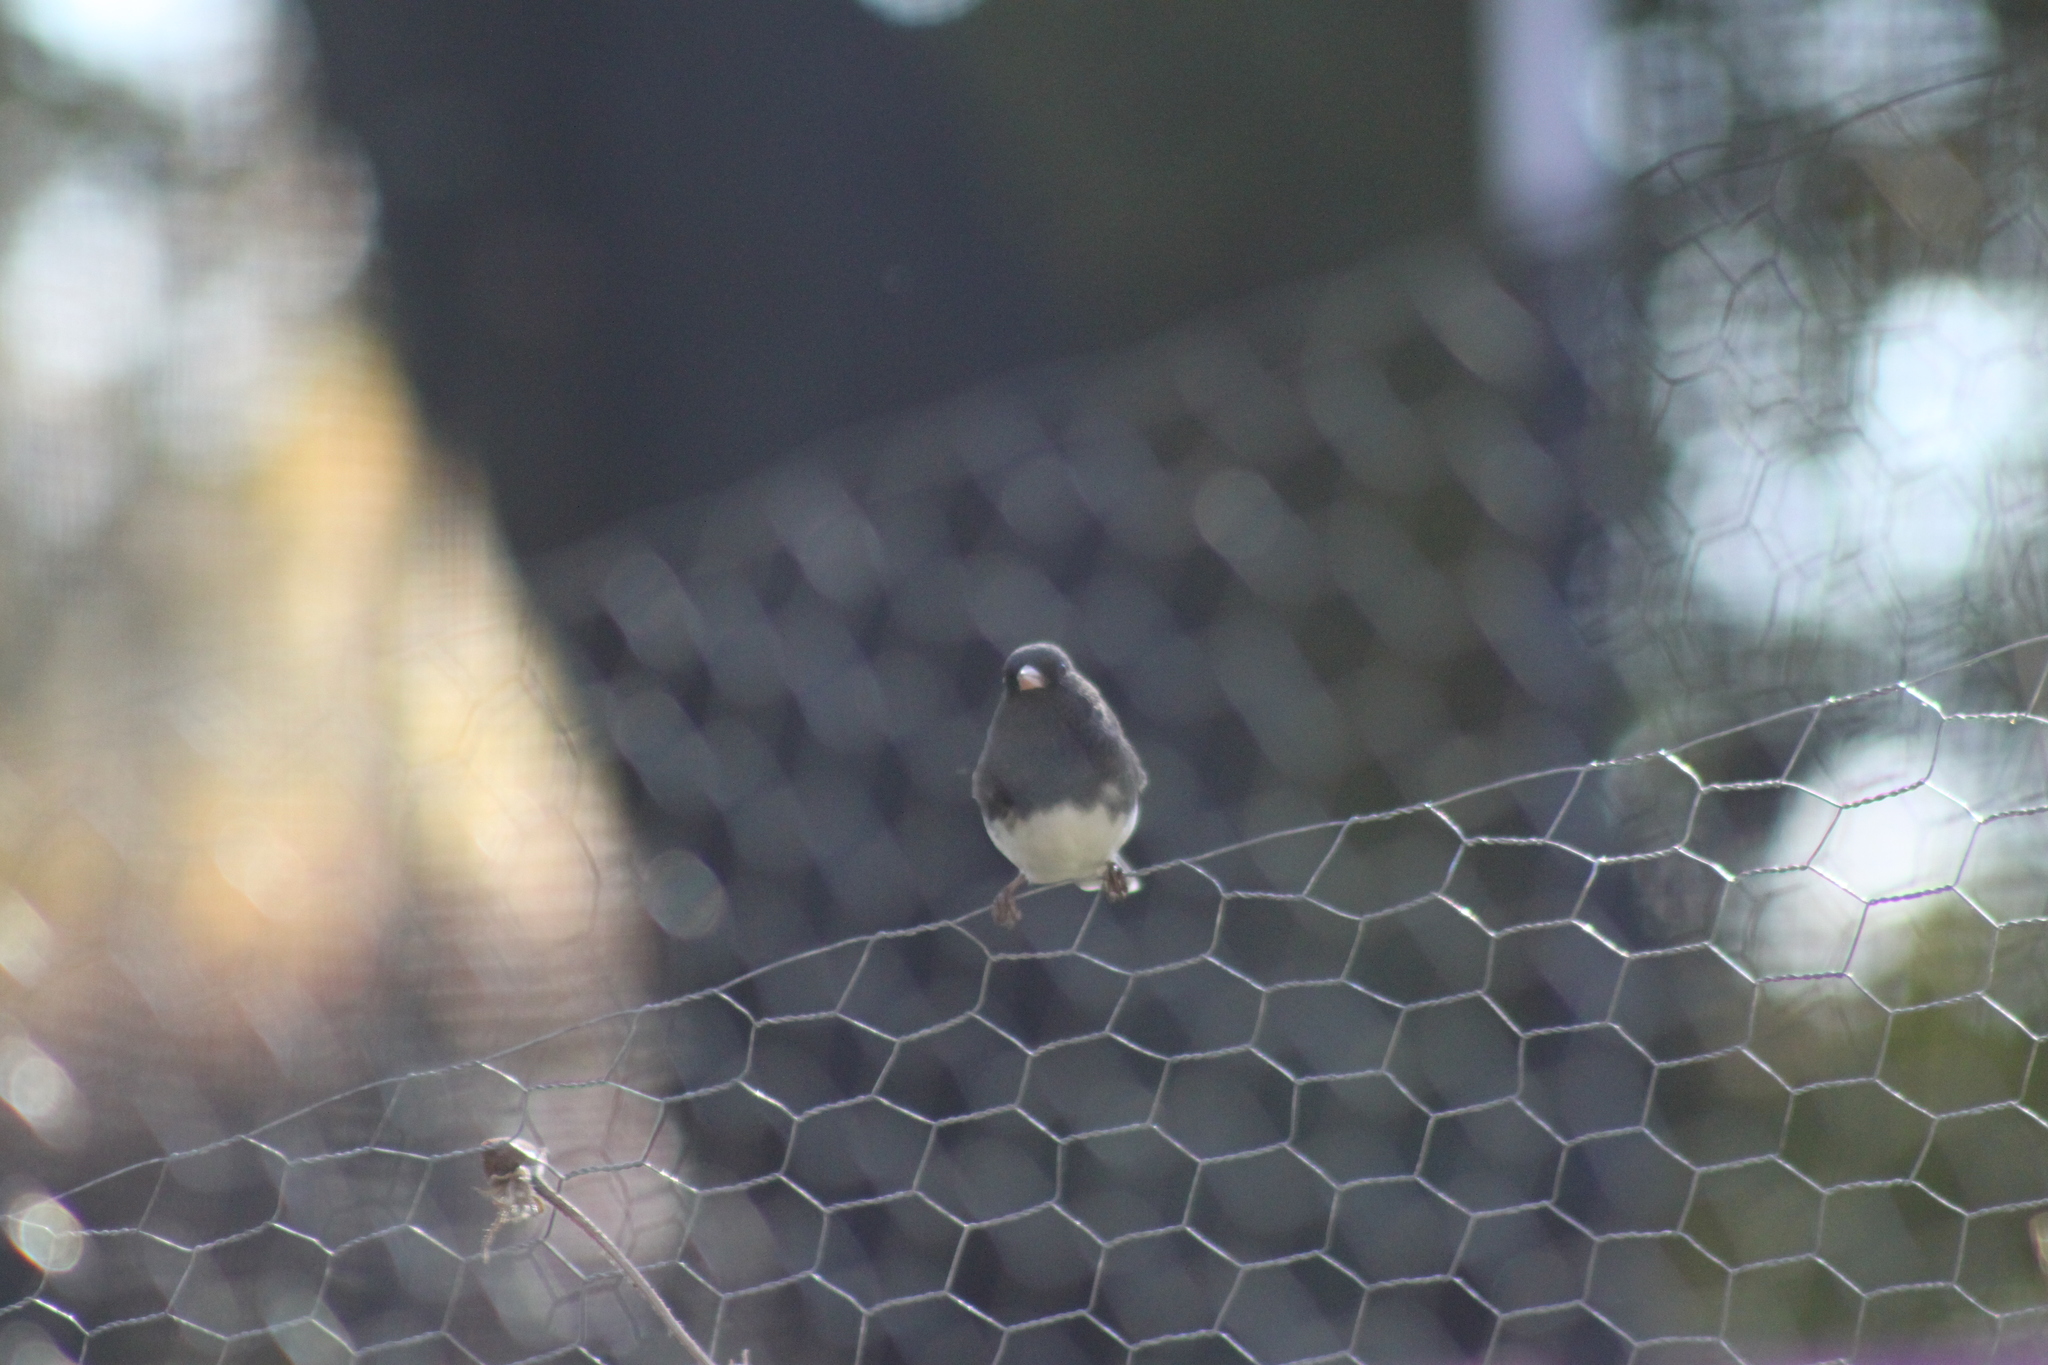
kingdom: Animalia
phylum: Chordata
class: Aves
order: Passeriformes
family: Passerellidae
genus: Junco
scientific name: Junco hyemalis
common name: Dark-eyed junco
